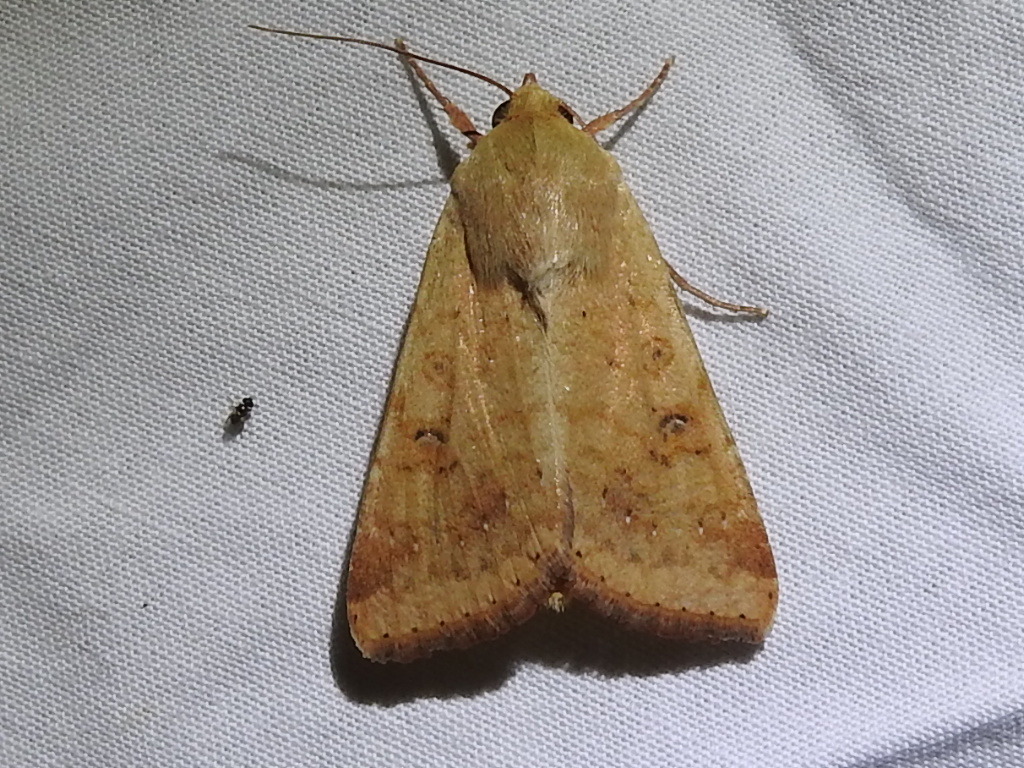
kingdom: Animalia
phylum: Arthropoda
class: Insecta
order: Lepidoptera
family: Noctuidae
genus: Helicoverpa
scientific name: Helicoverpa zea
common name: Bollworm
